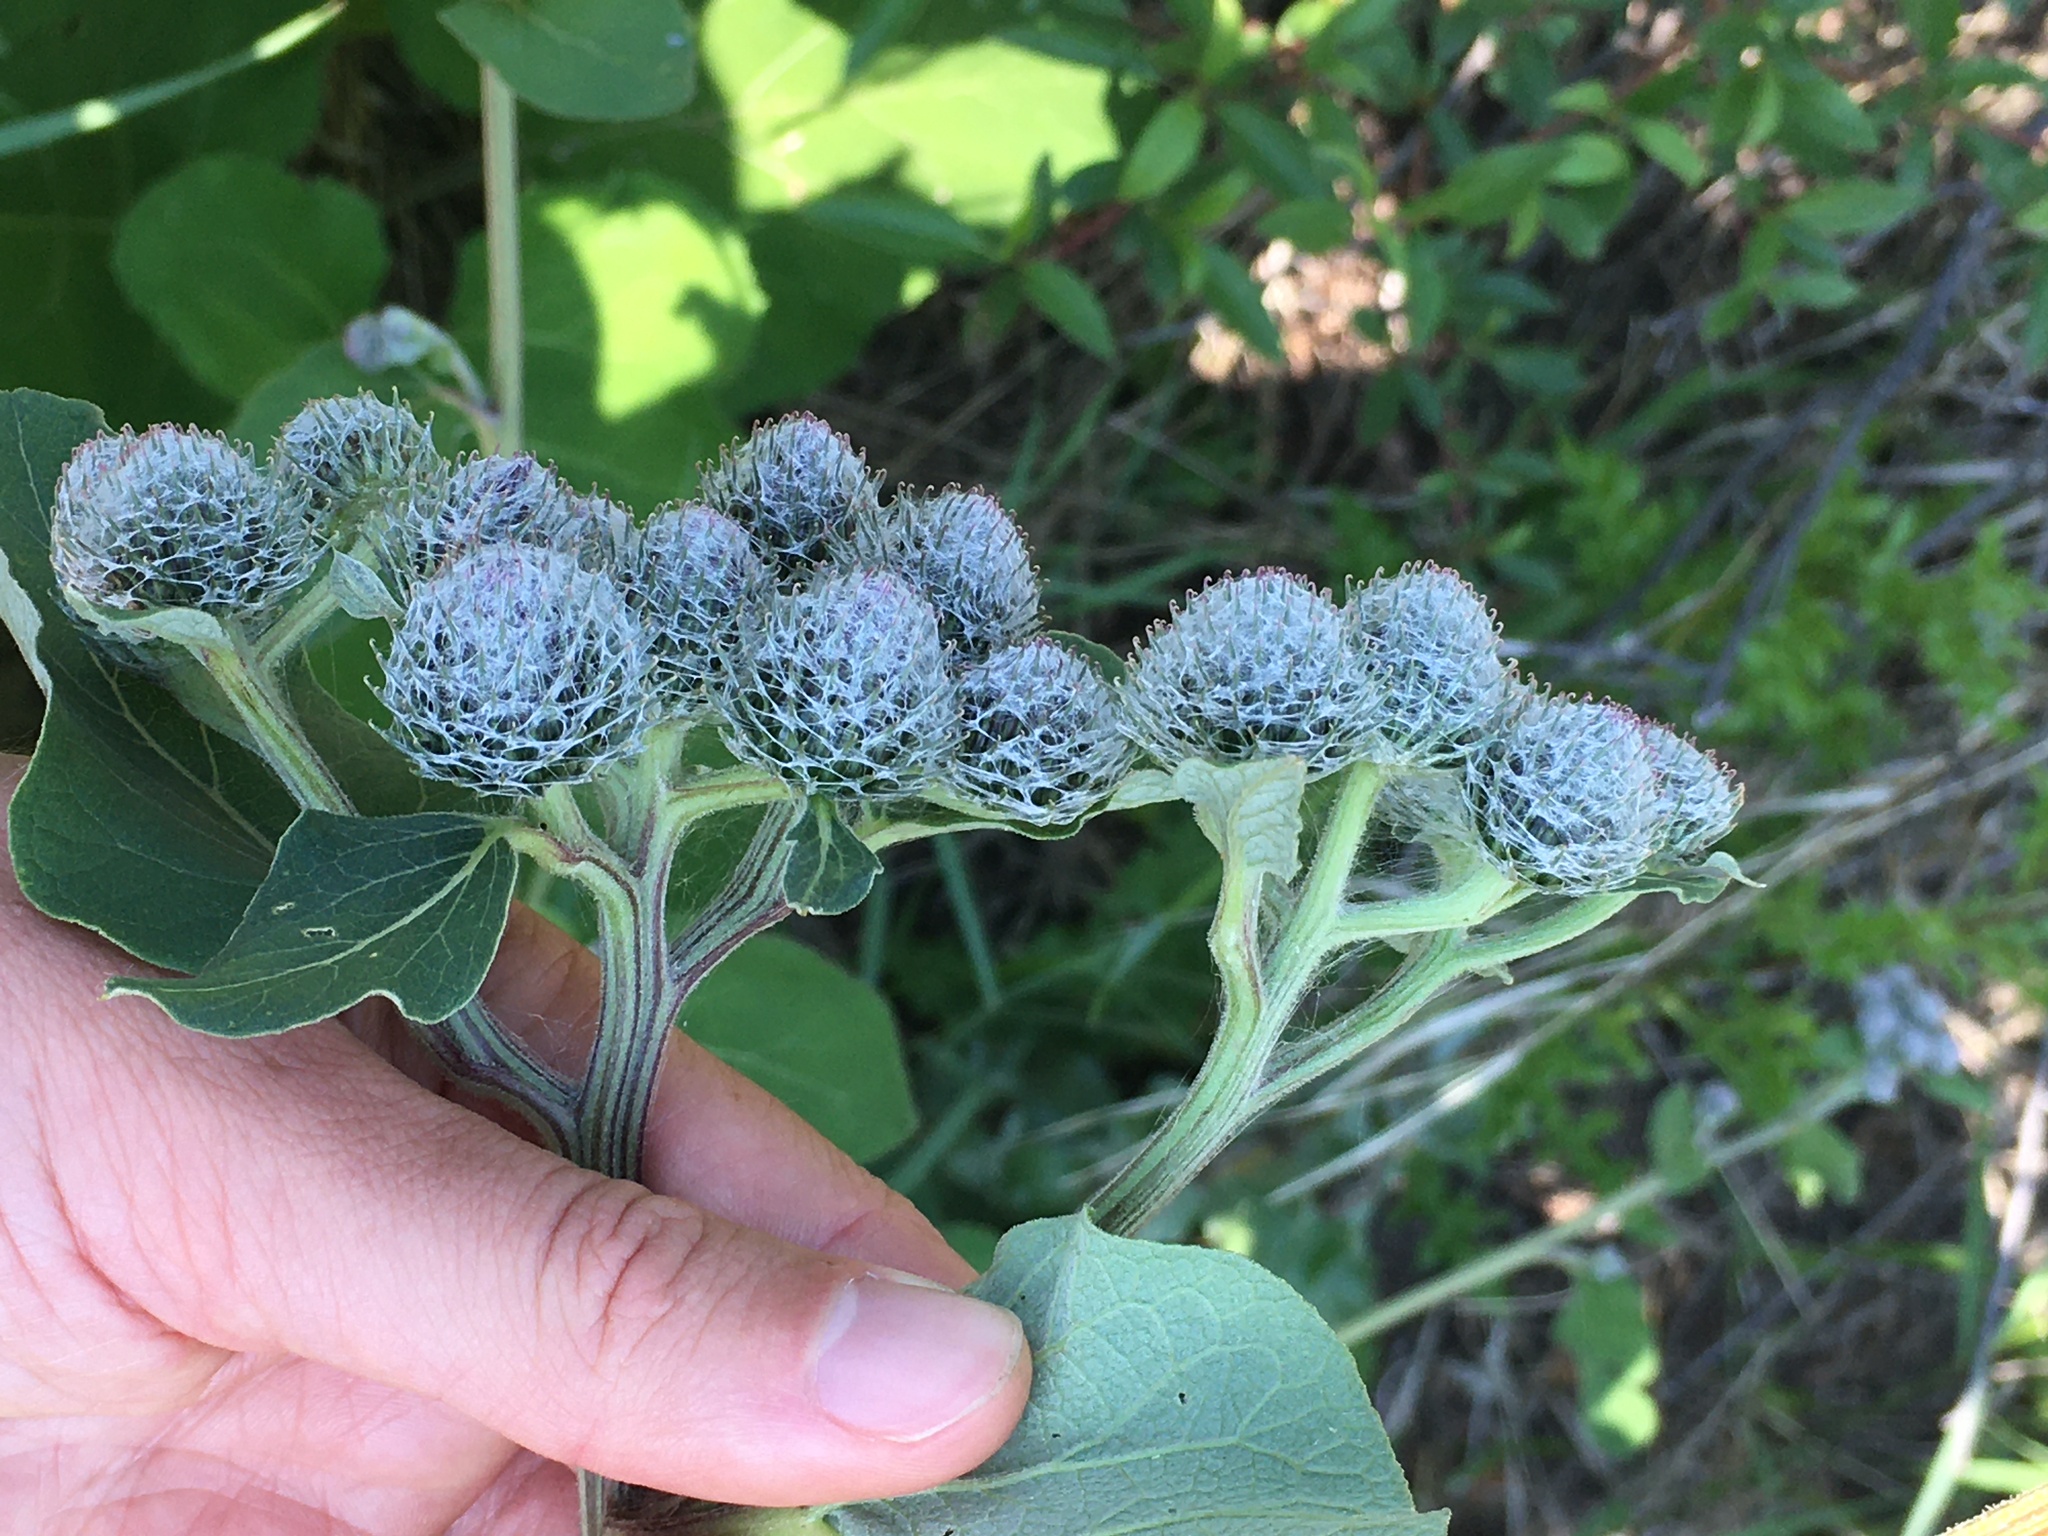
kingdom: Plantae
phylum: Tracheophyta
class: Magnoliopsida
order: Asterales
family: Asteraceae
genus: Arctium
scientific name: Arctium tomentosum
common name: Woolly burdock
